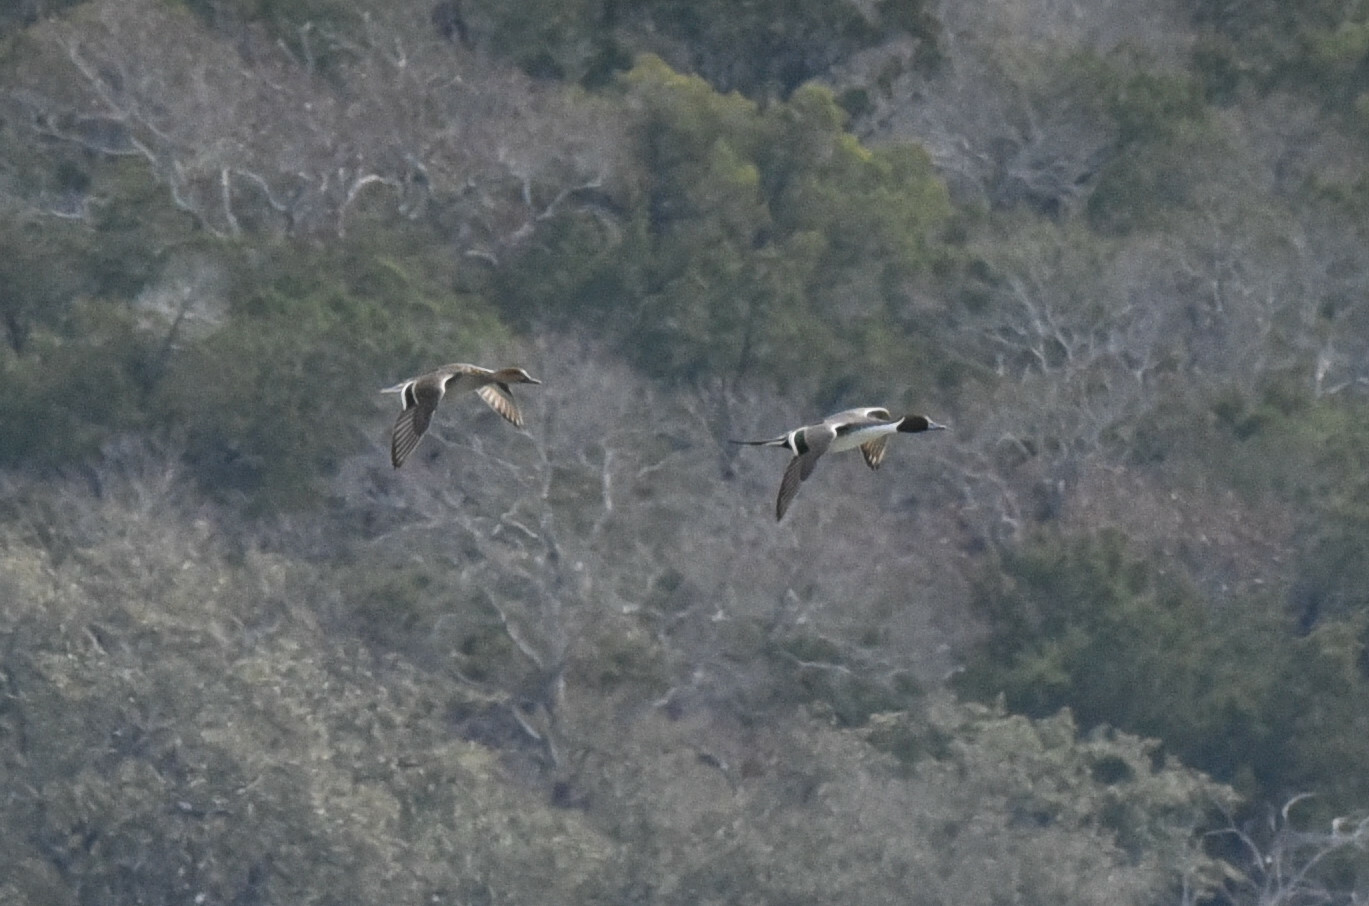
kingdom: Animalia
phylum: Chordata
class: Aves
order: Anseriformes
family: Anatidae
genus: Anas
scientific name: Anas acuta
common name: Northern pintail
